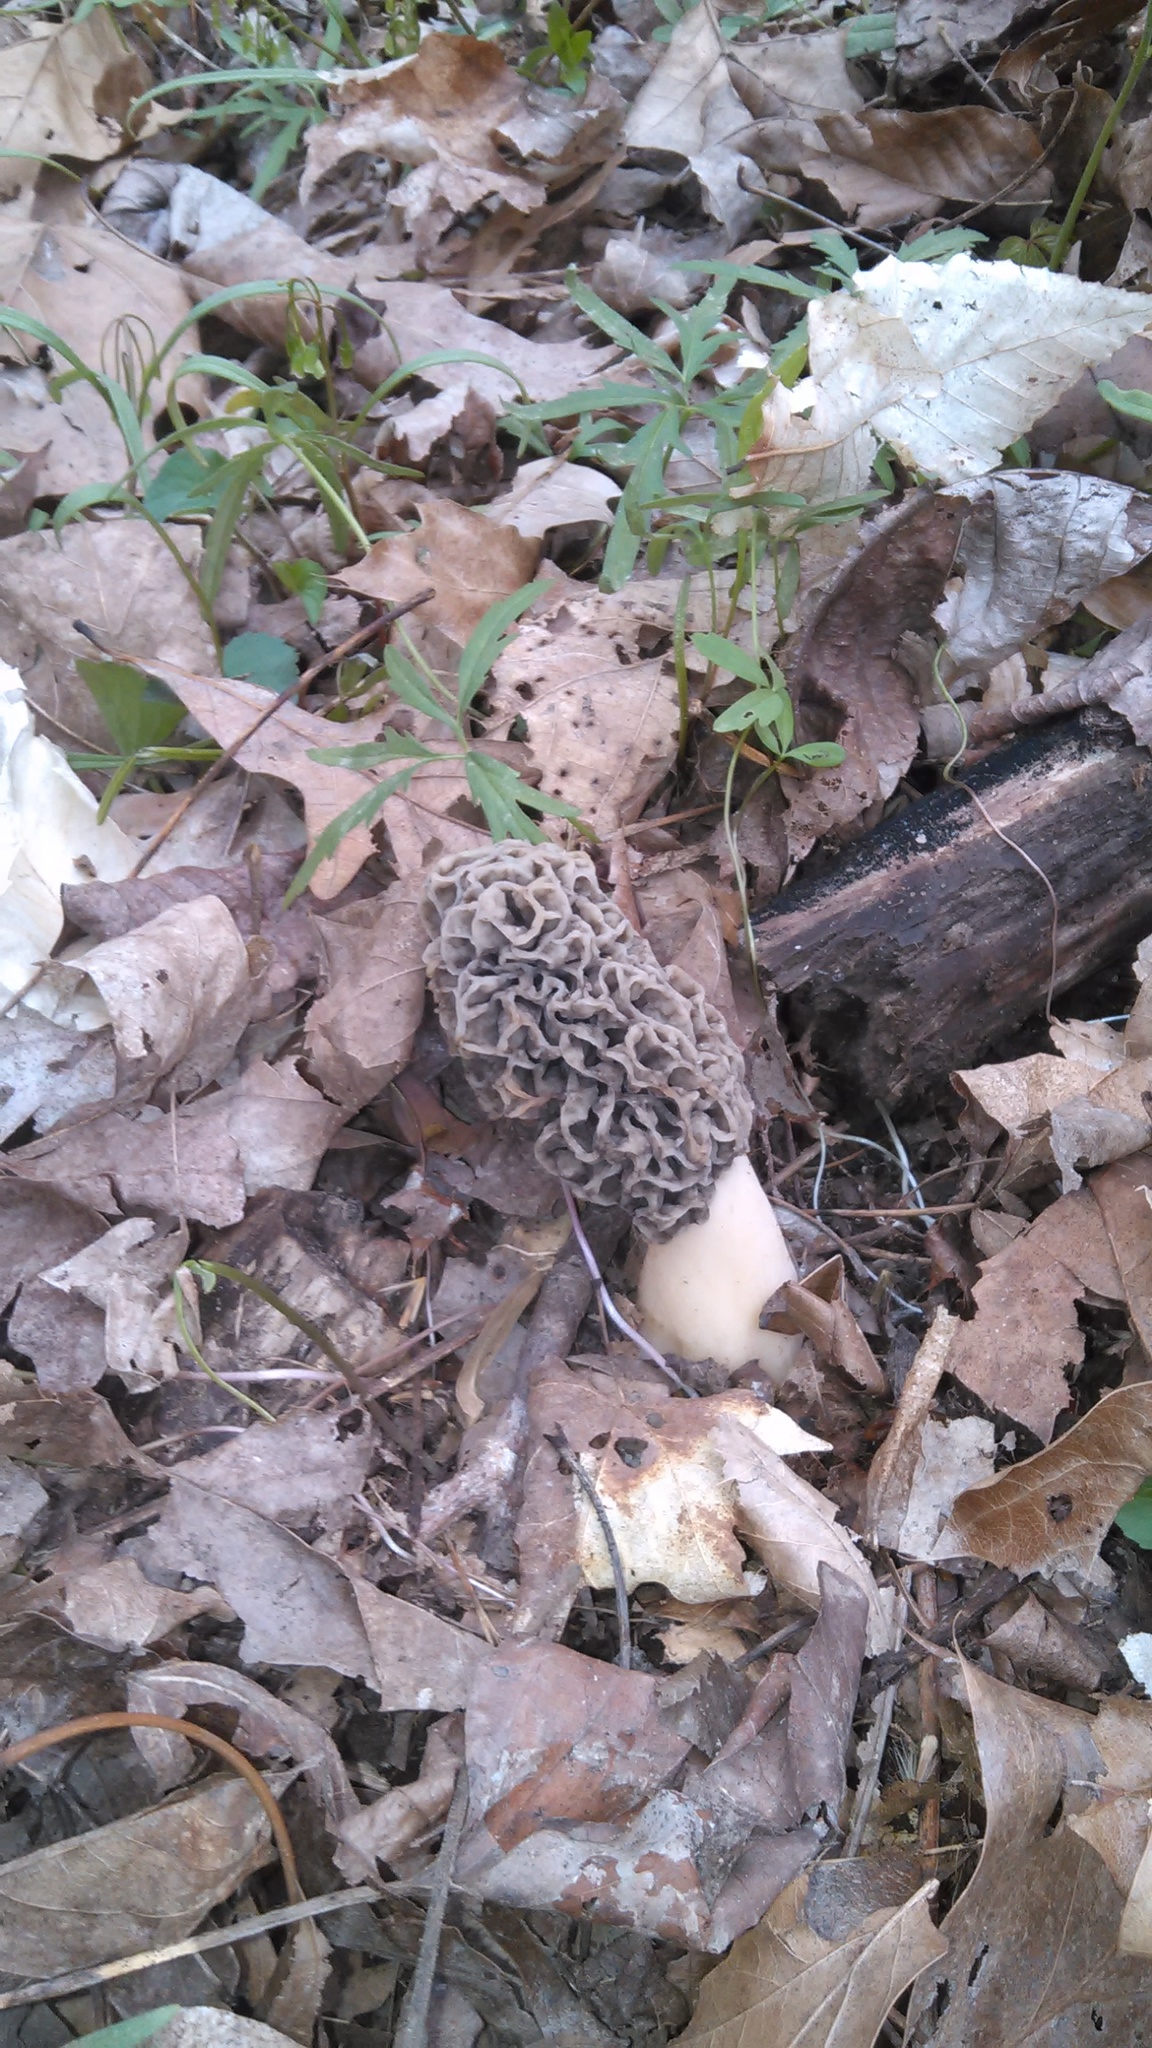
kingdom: Fungi
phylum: Ascomycota
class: Pezizomycetes
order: Pezizales
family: Morchellaceae
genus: Morchella
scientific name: Morchella americana
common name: White morel
